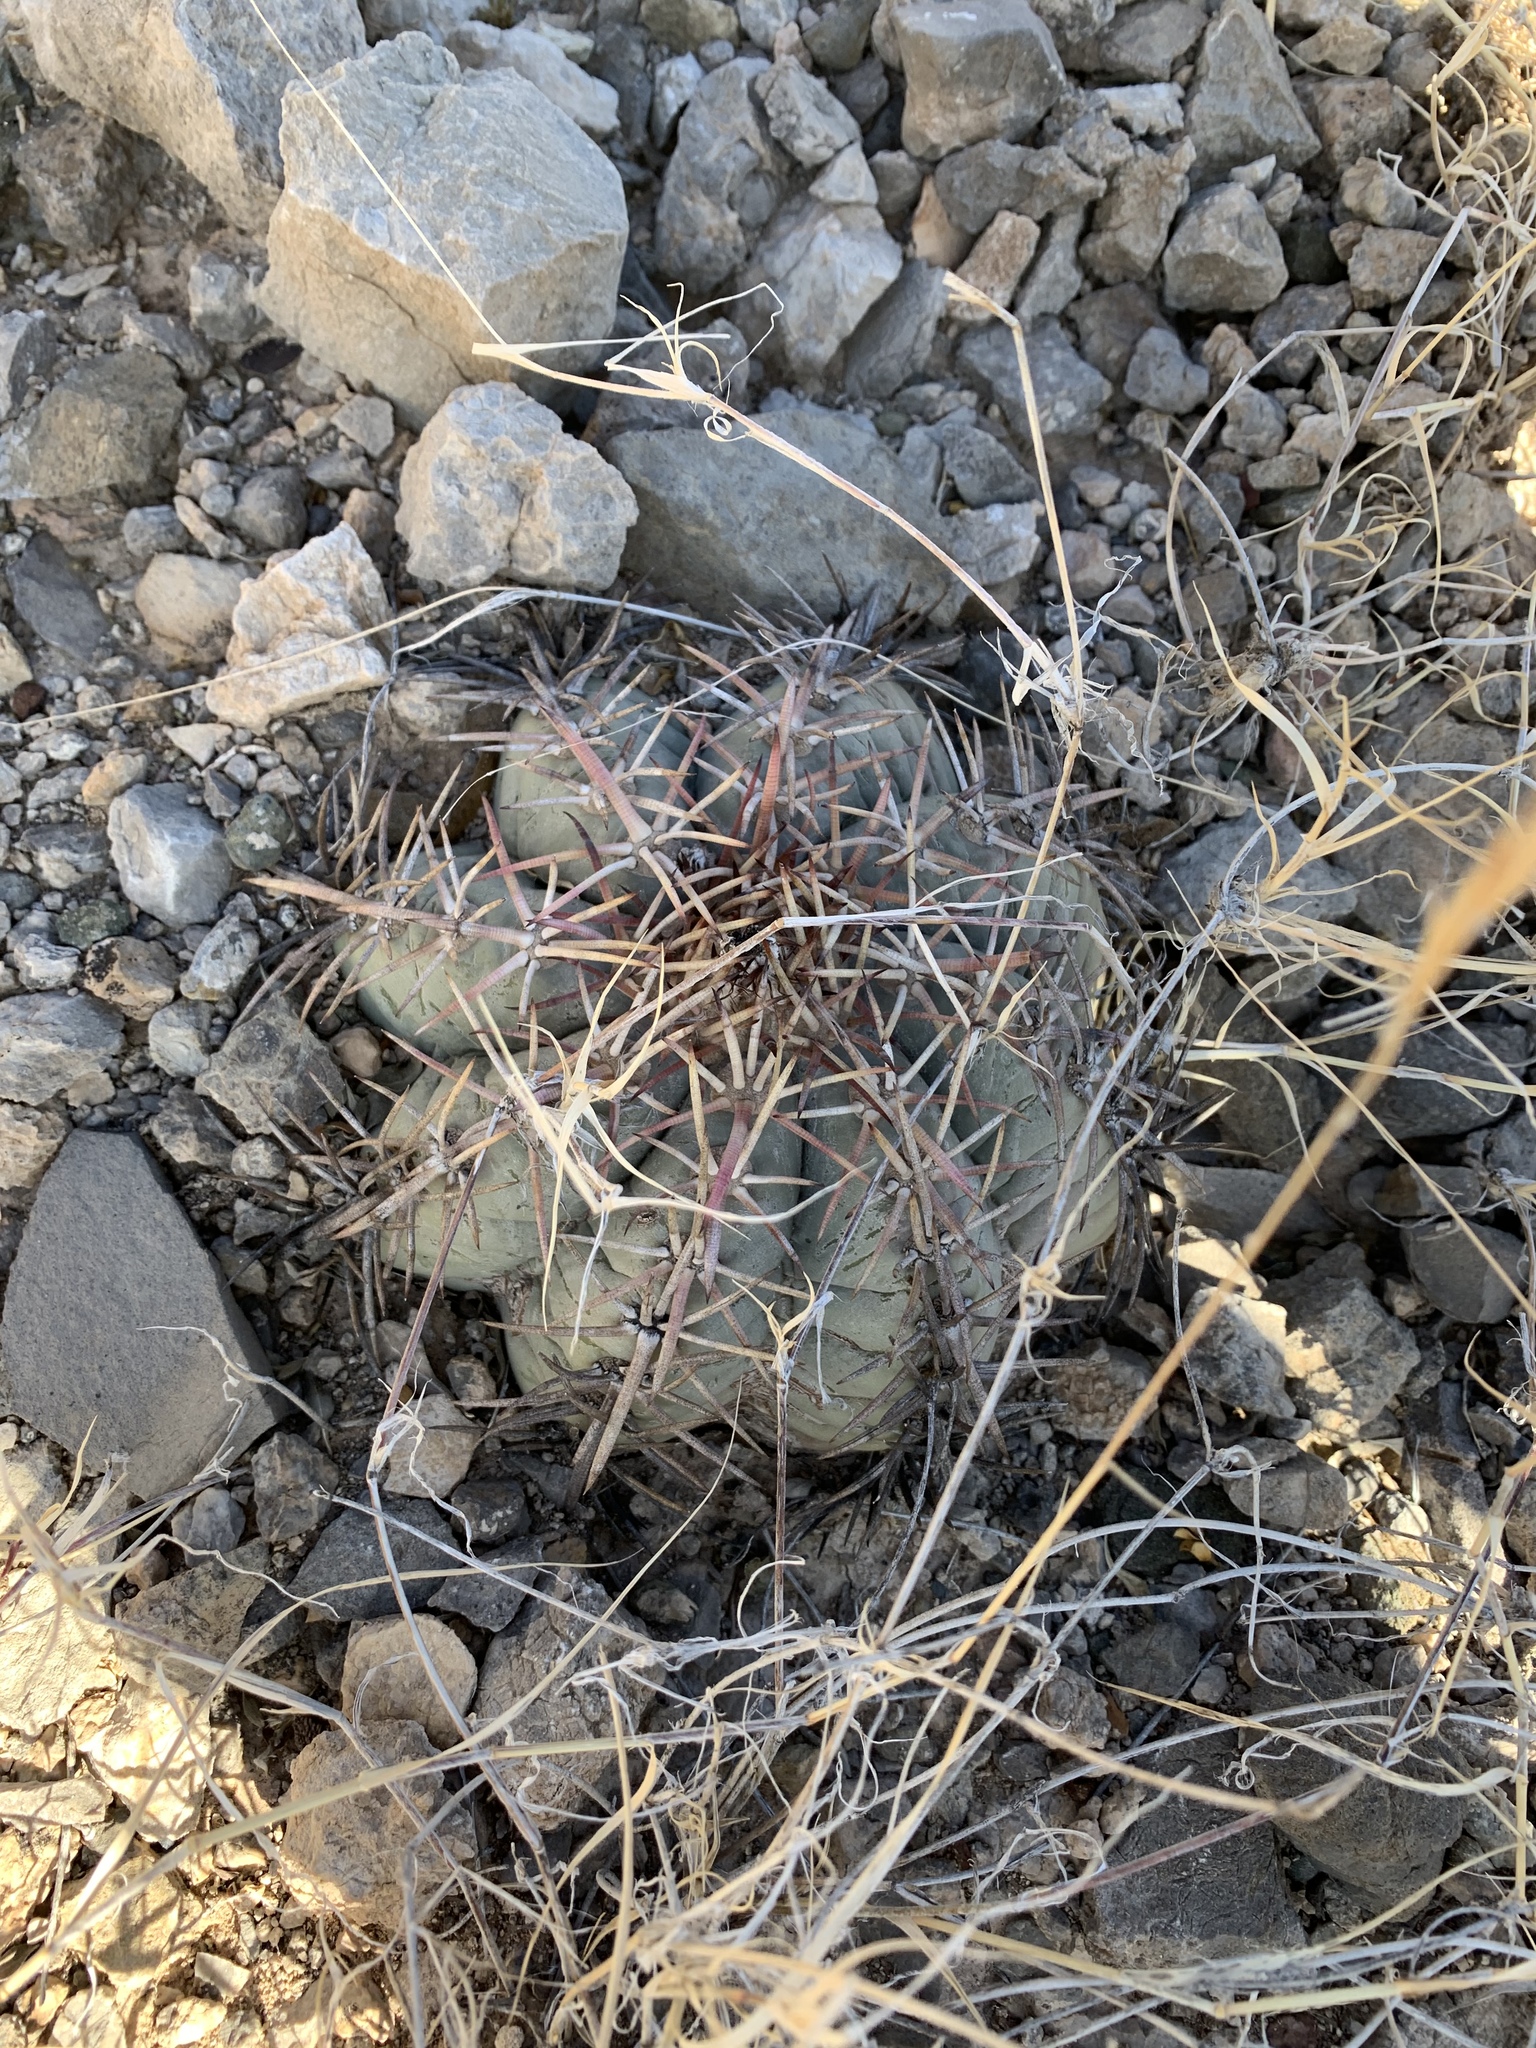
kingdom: Plantae
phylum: Tracheophyta
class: Magnoliopsida
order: Caryophyllales
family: Cactaceae
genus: Echinocactus
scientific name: Echinocactus horizonthalonius
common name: Devilshead
